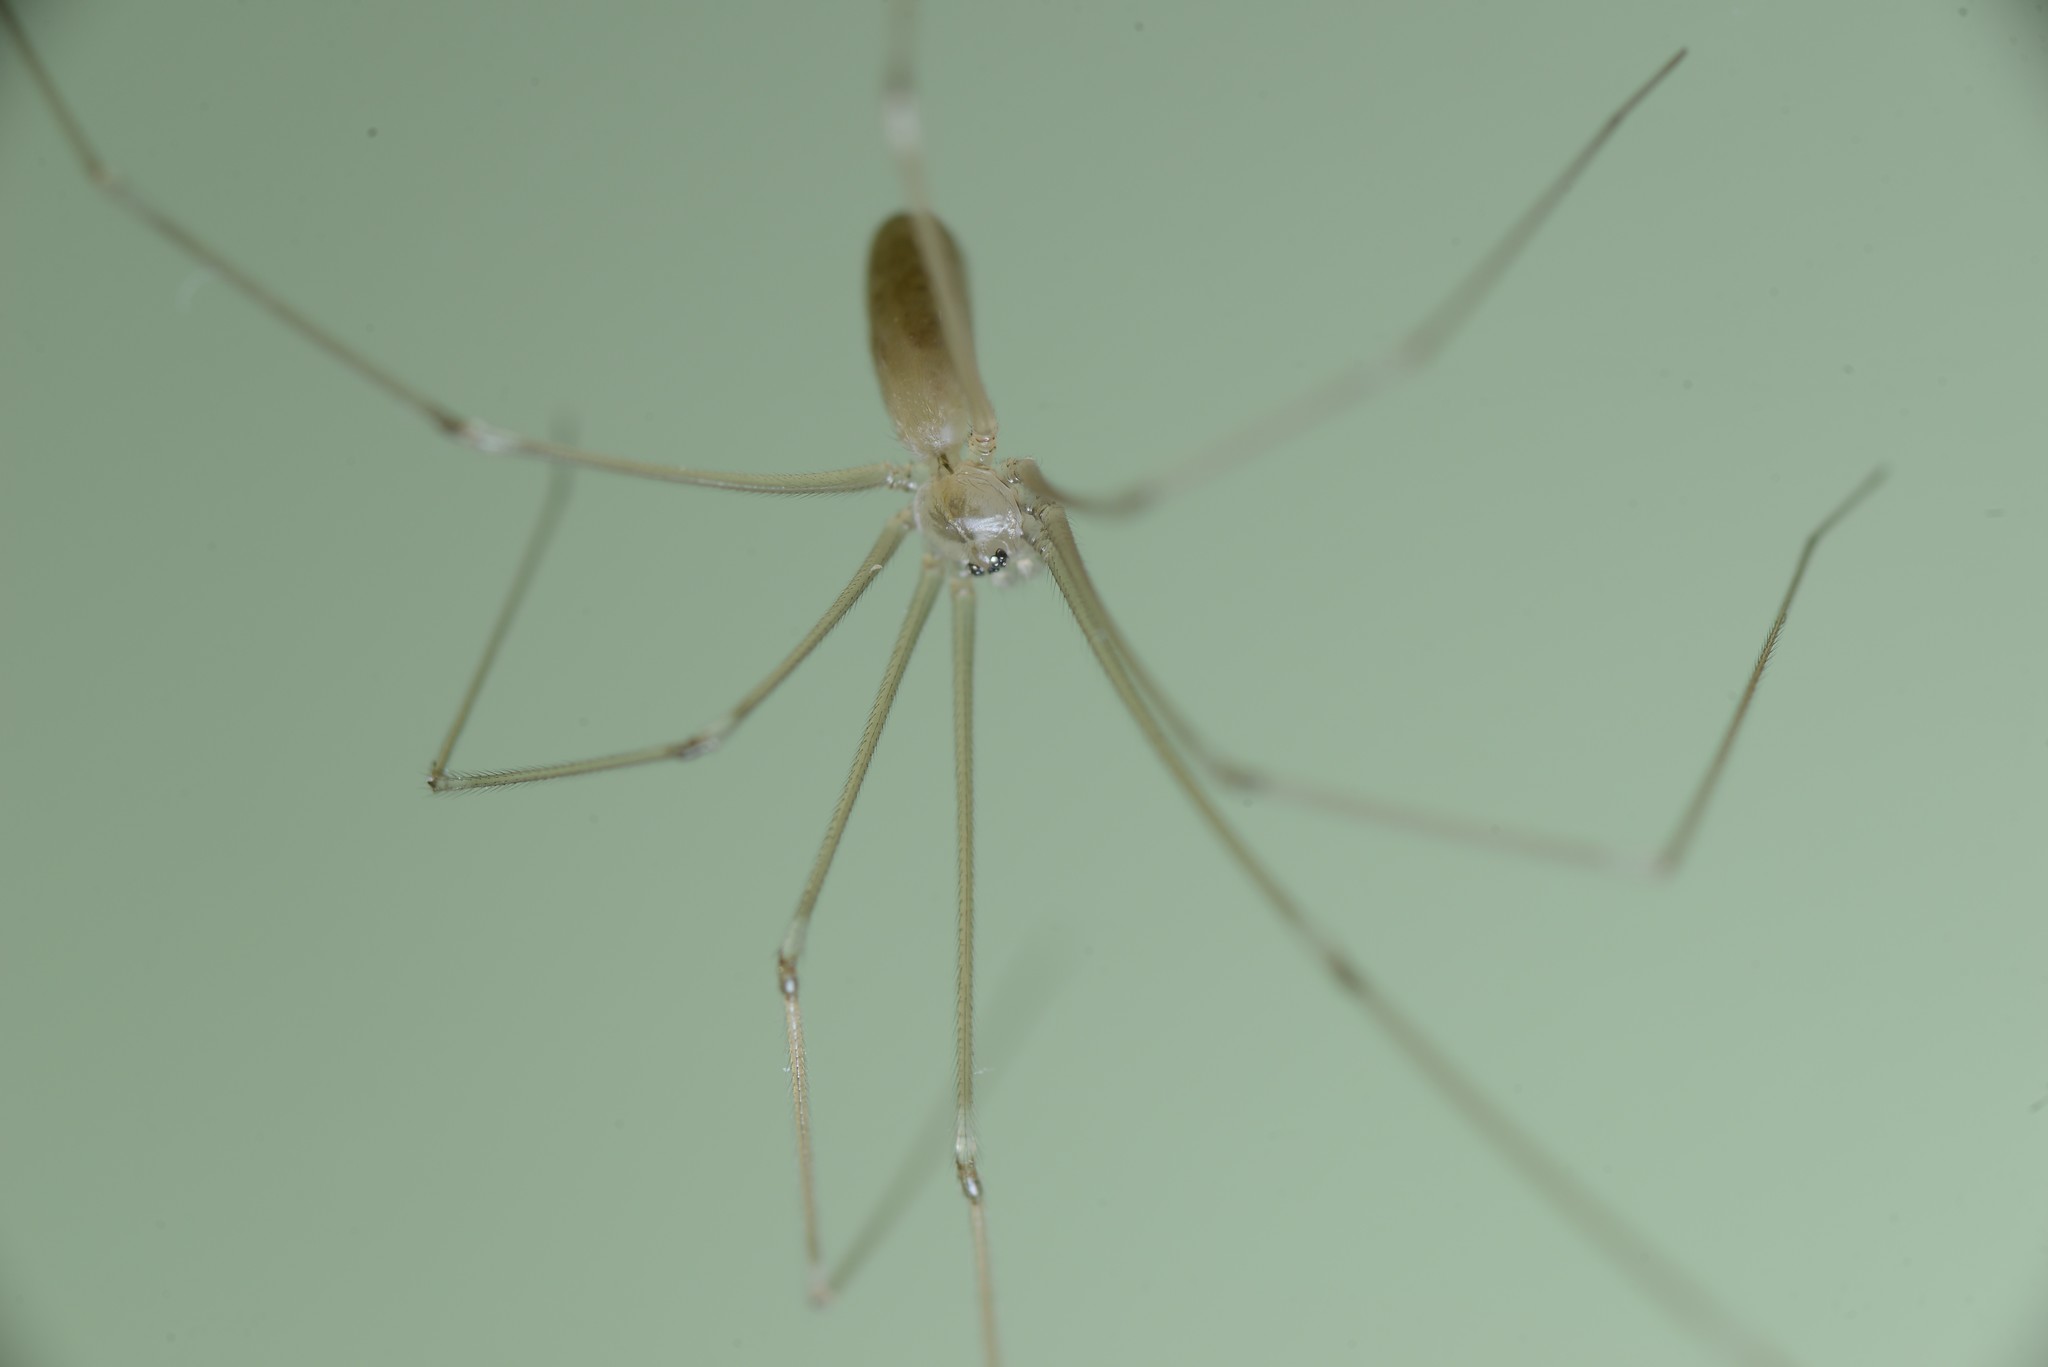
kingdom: Animalia
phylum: Arthropoda
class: Arachnida
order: Araneae
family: Pholcidae
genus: Pholcus
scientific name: Pholcus phalangioides
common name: Longbodied cellar spider
